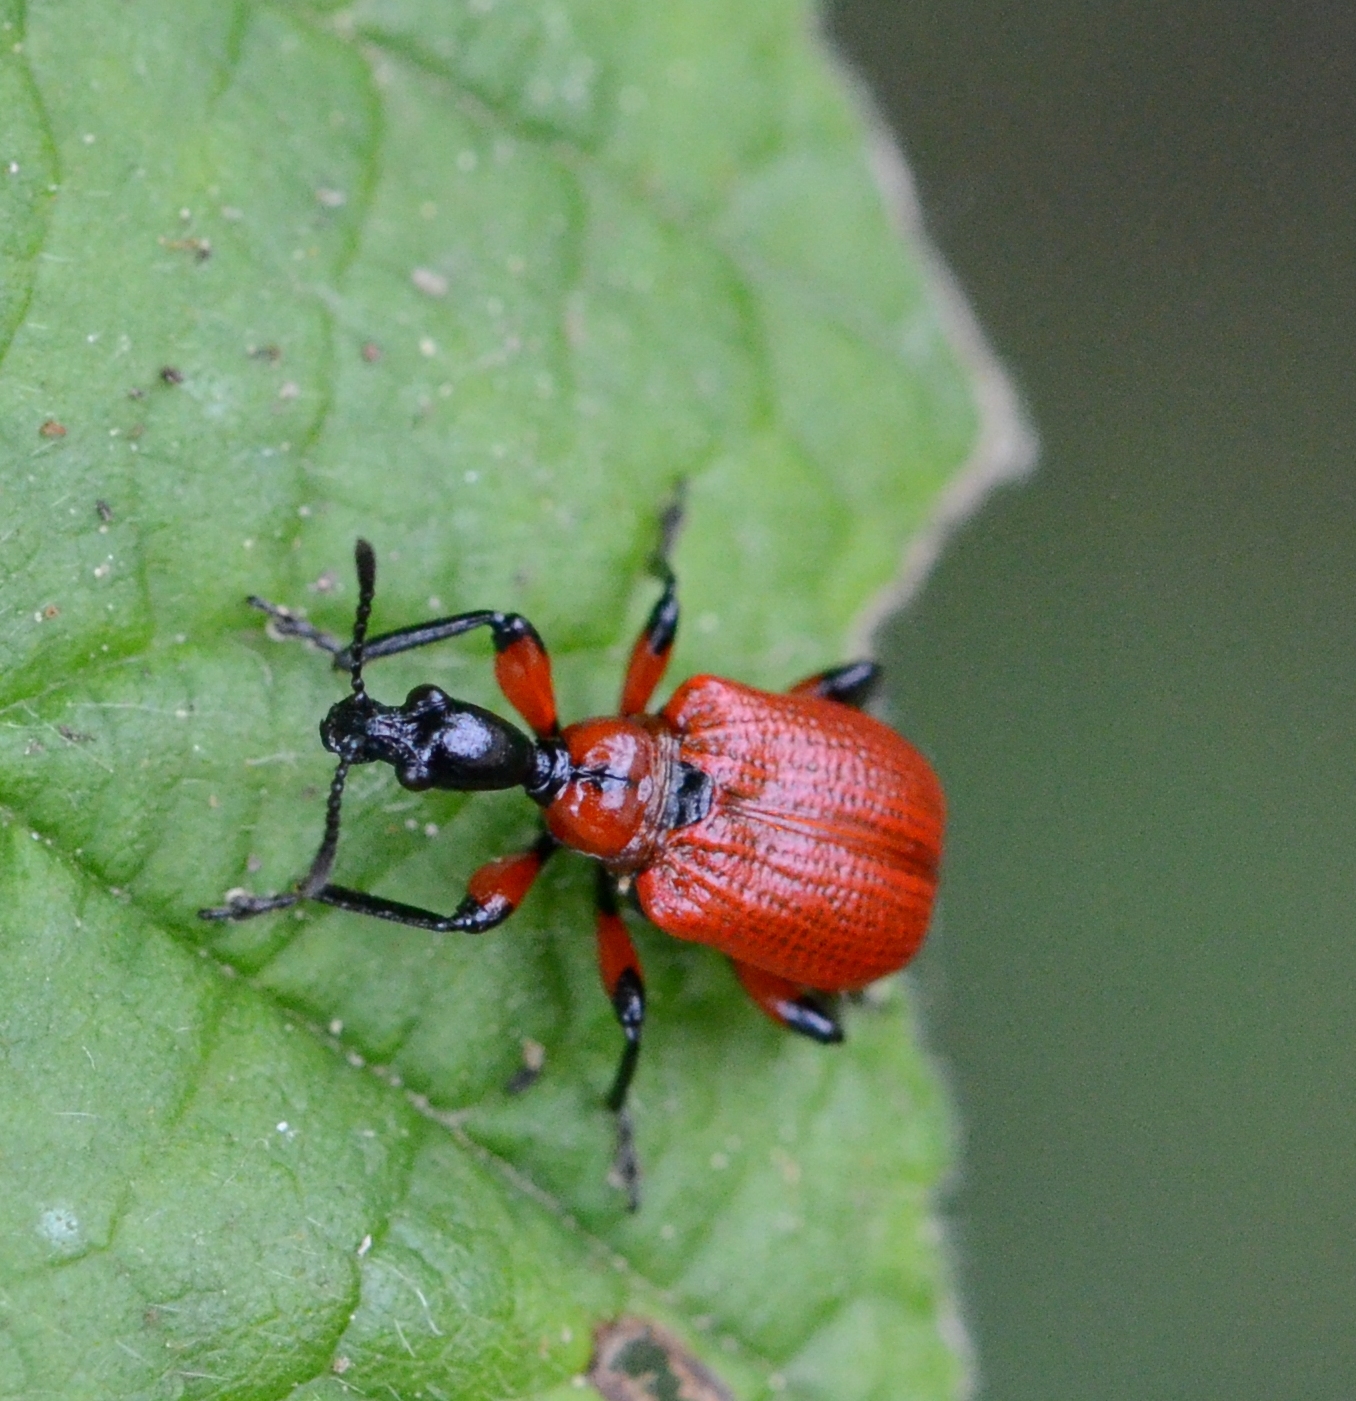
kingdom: Animalia
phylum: Arthropoda
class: Insecta
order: Coleoptera
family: Attelabidae
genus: Apoderus
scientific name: Apoderus coryli
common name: Hazel leaf roller
